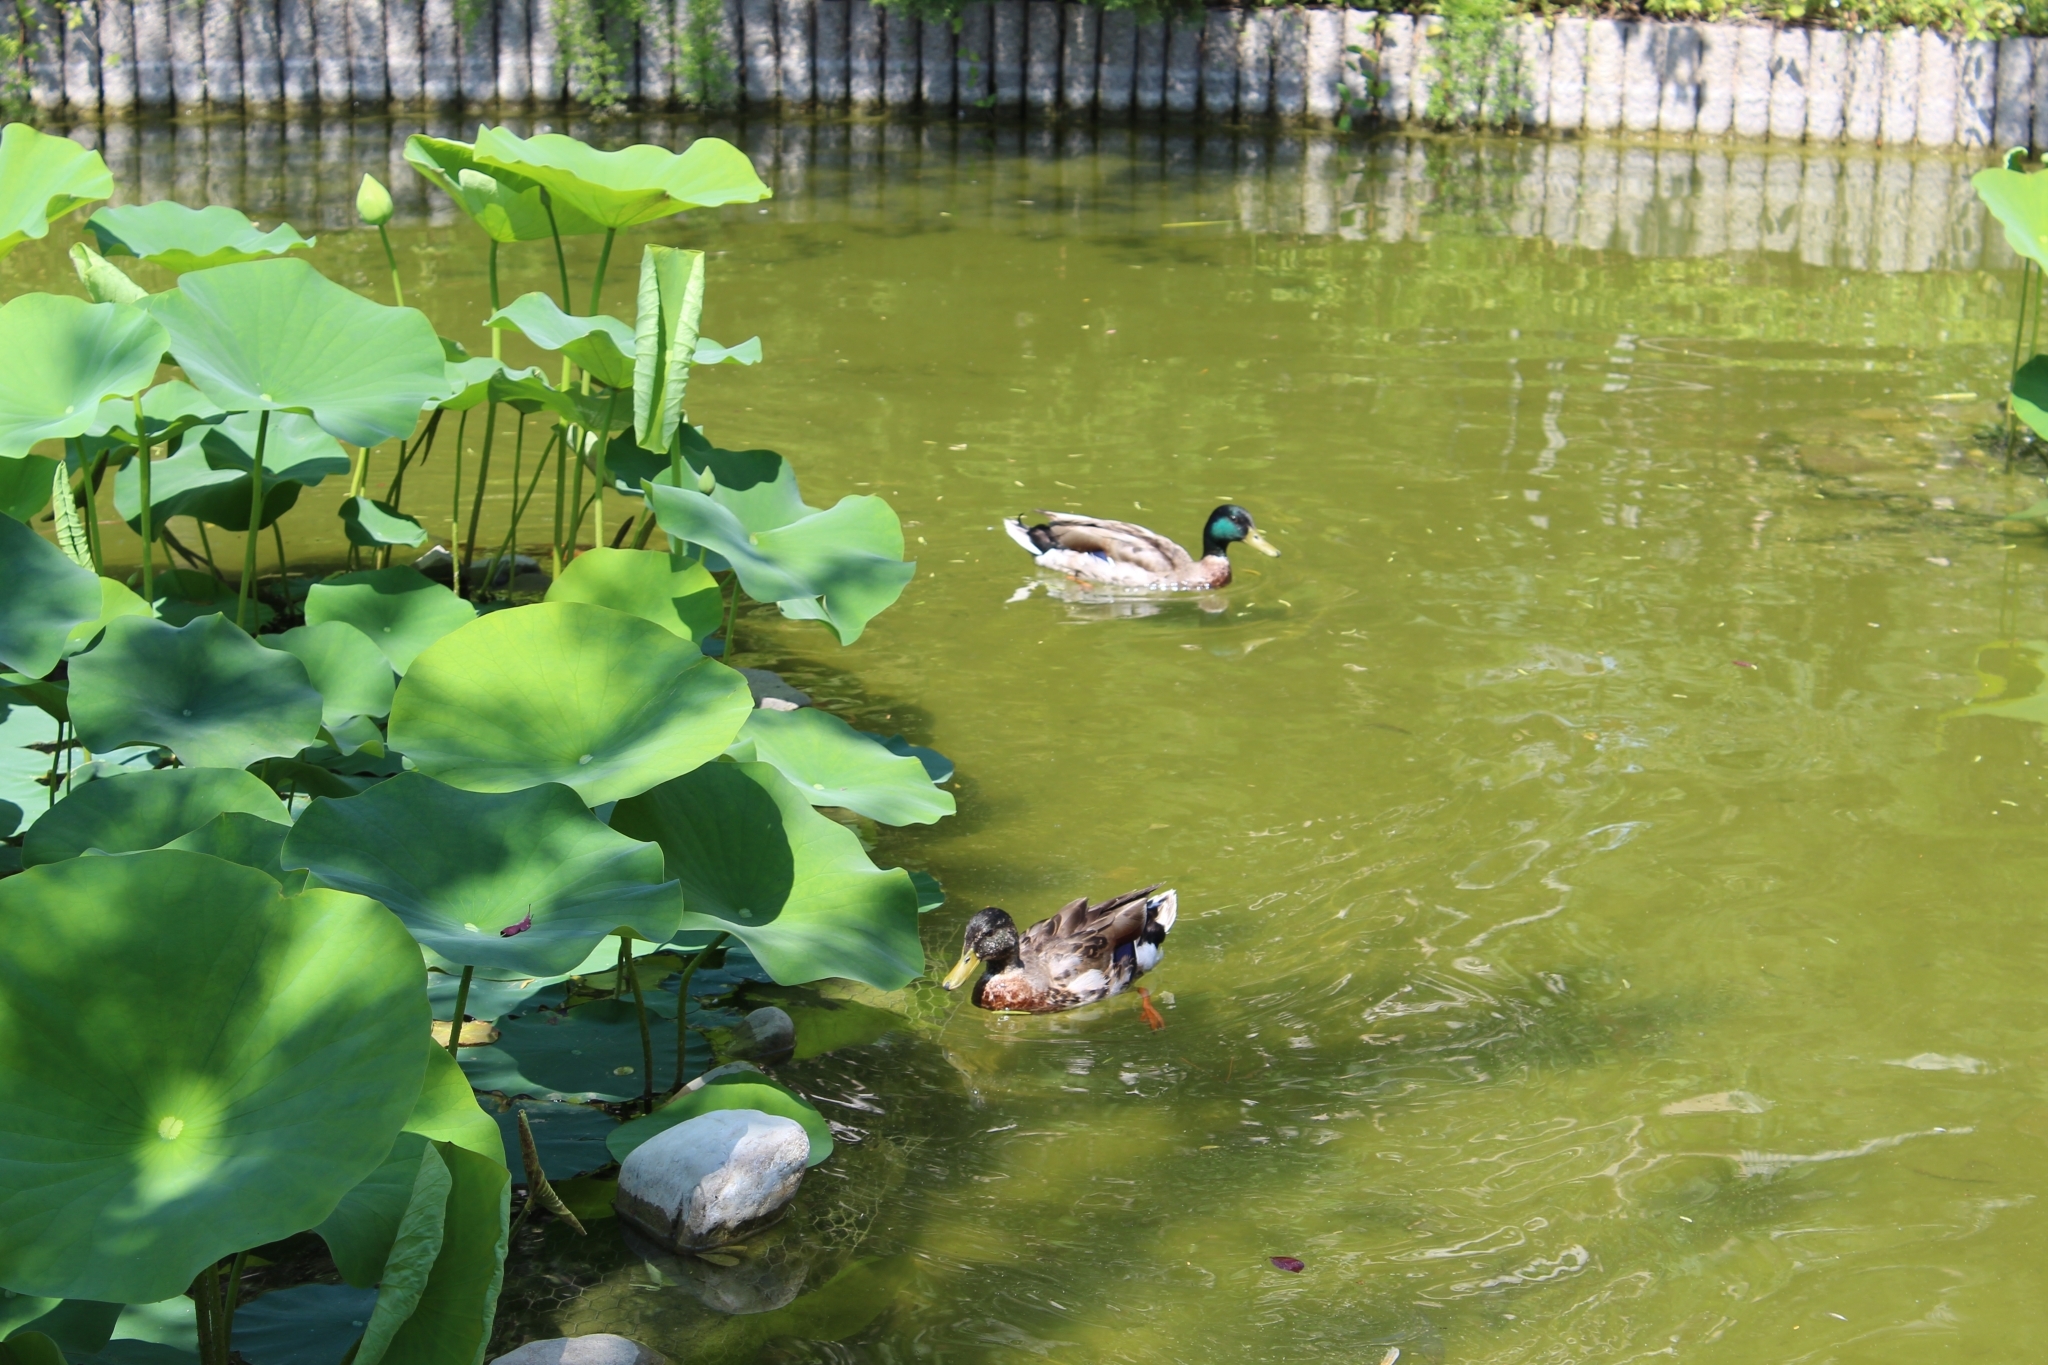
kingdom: Animalia
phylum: Chordata
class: Aves
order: Anseriformes
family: Anatidae
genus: Anas
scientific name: Anas platyrhynchos
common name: Mallard
